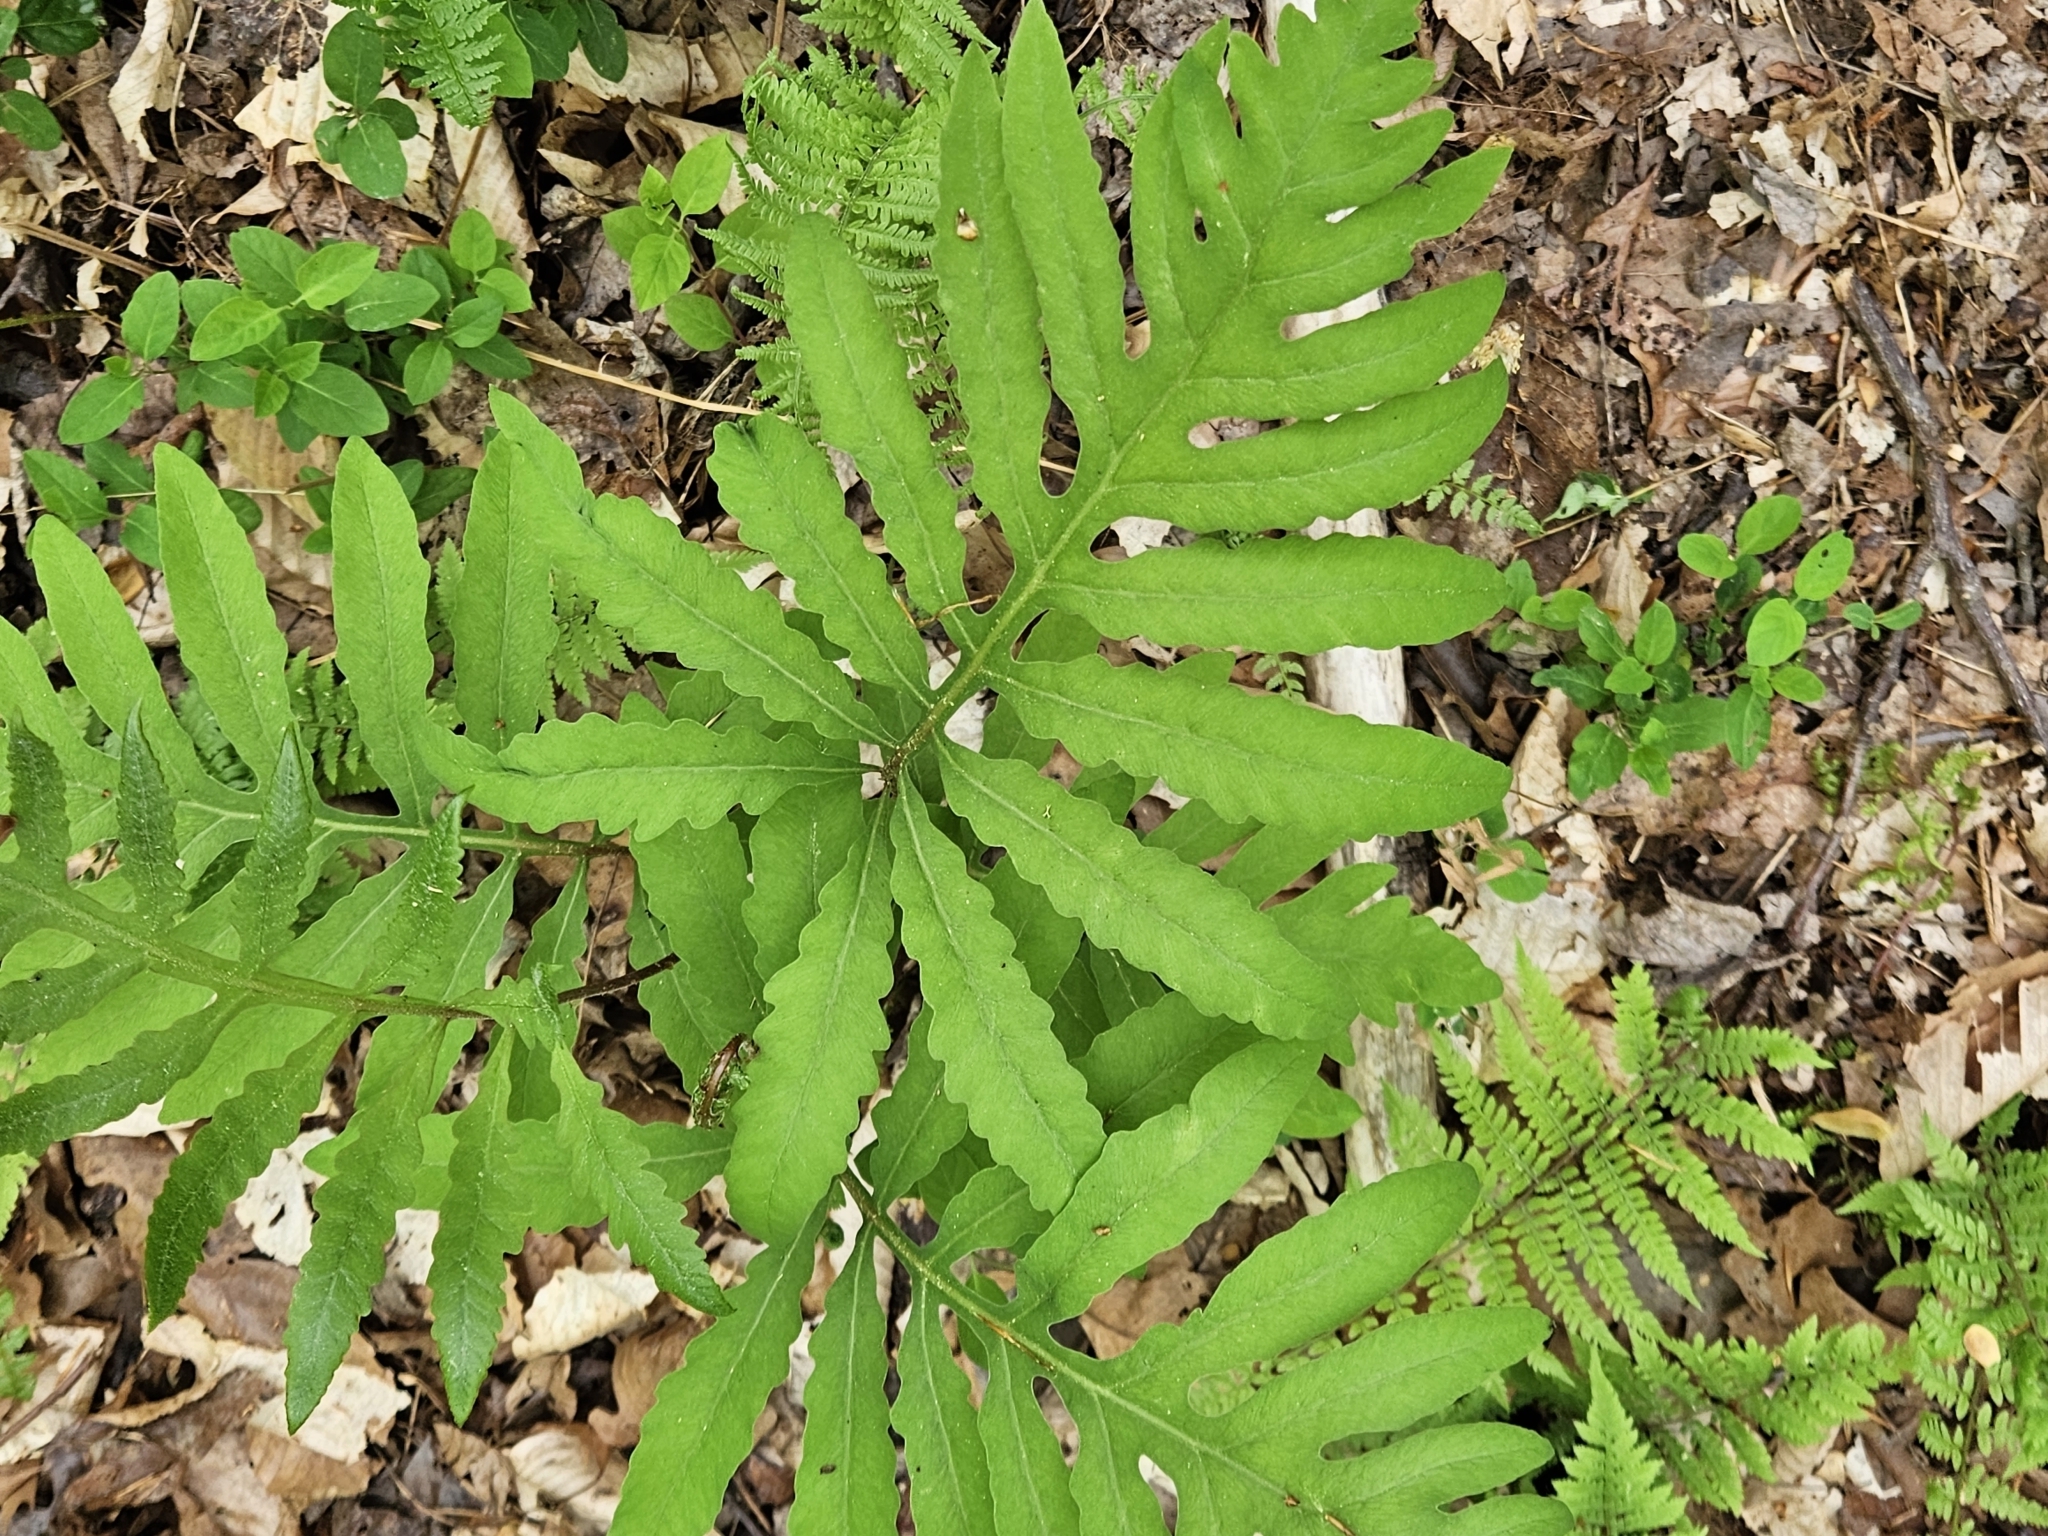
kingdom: Plantae
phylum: Tracheophyta
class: Polypodiopsida
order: Polypodiales
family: Onocleaceae
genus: Onoclea
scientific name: Onoclea sensibilis
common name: Sensitive fern
